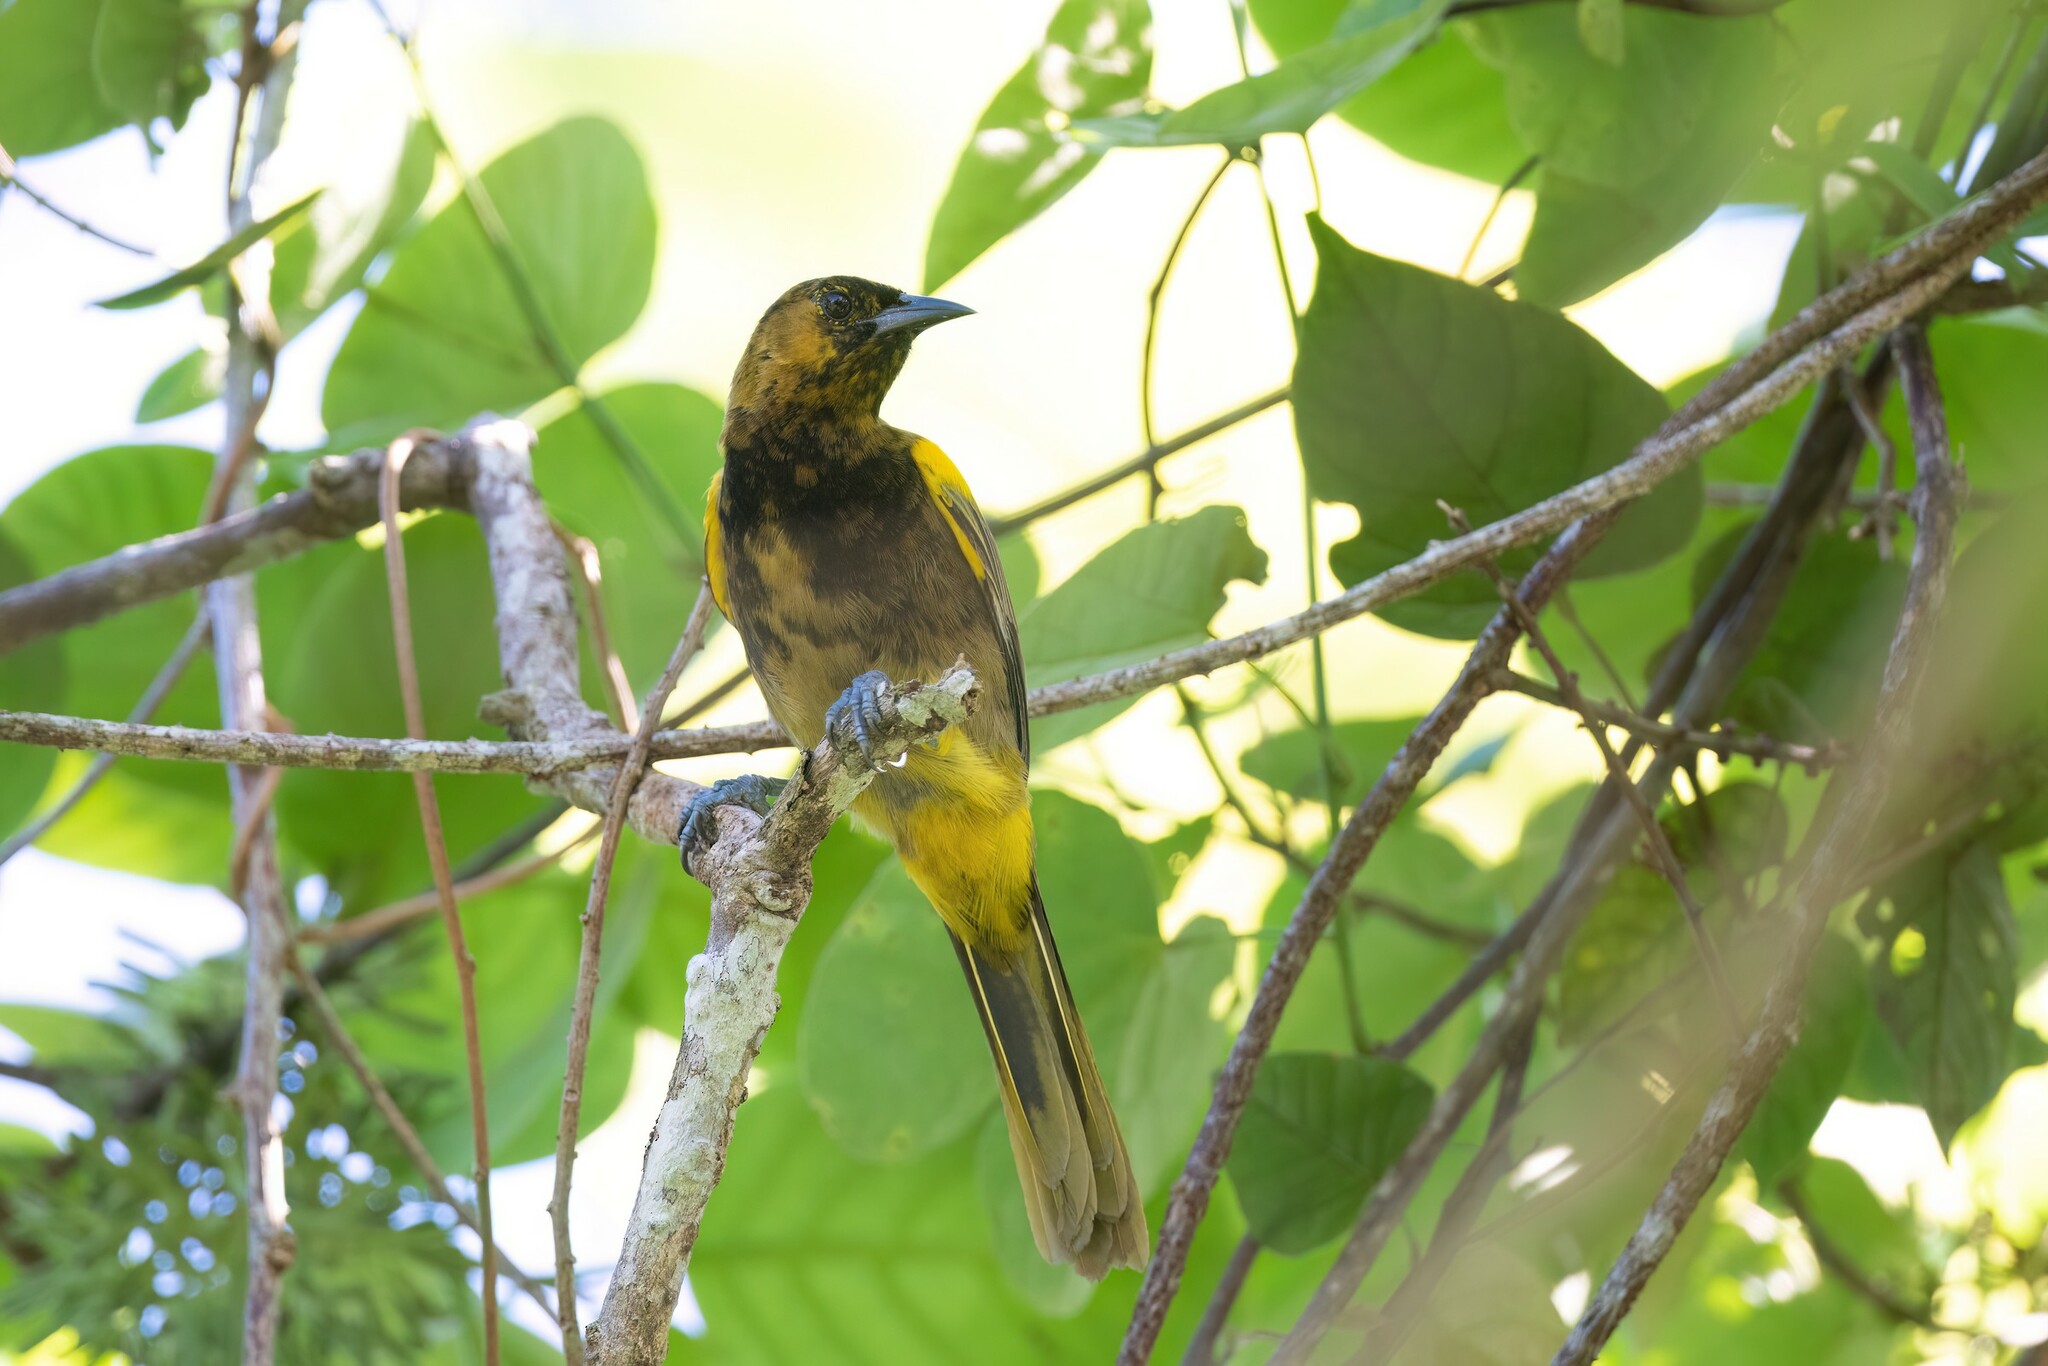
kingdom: Animalia
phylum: Chordata
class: Aves
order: Passeriformes
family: Icteridae
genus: Icterus
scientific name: Icterus portoricensis
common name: Puerto rican oriole
